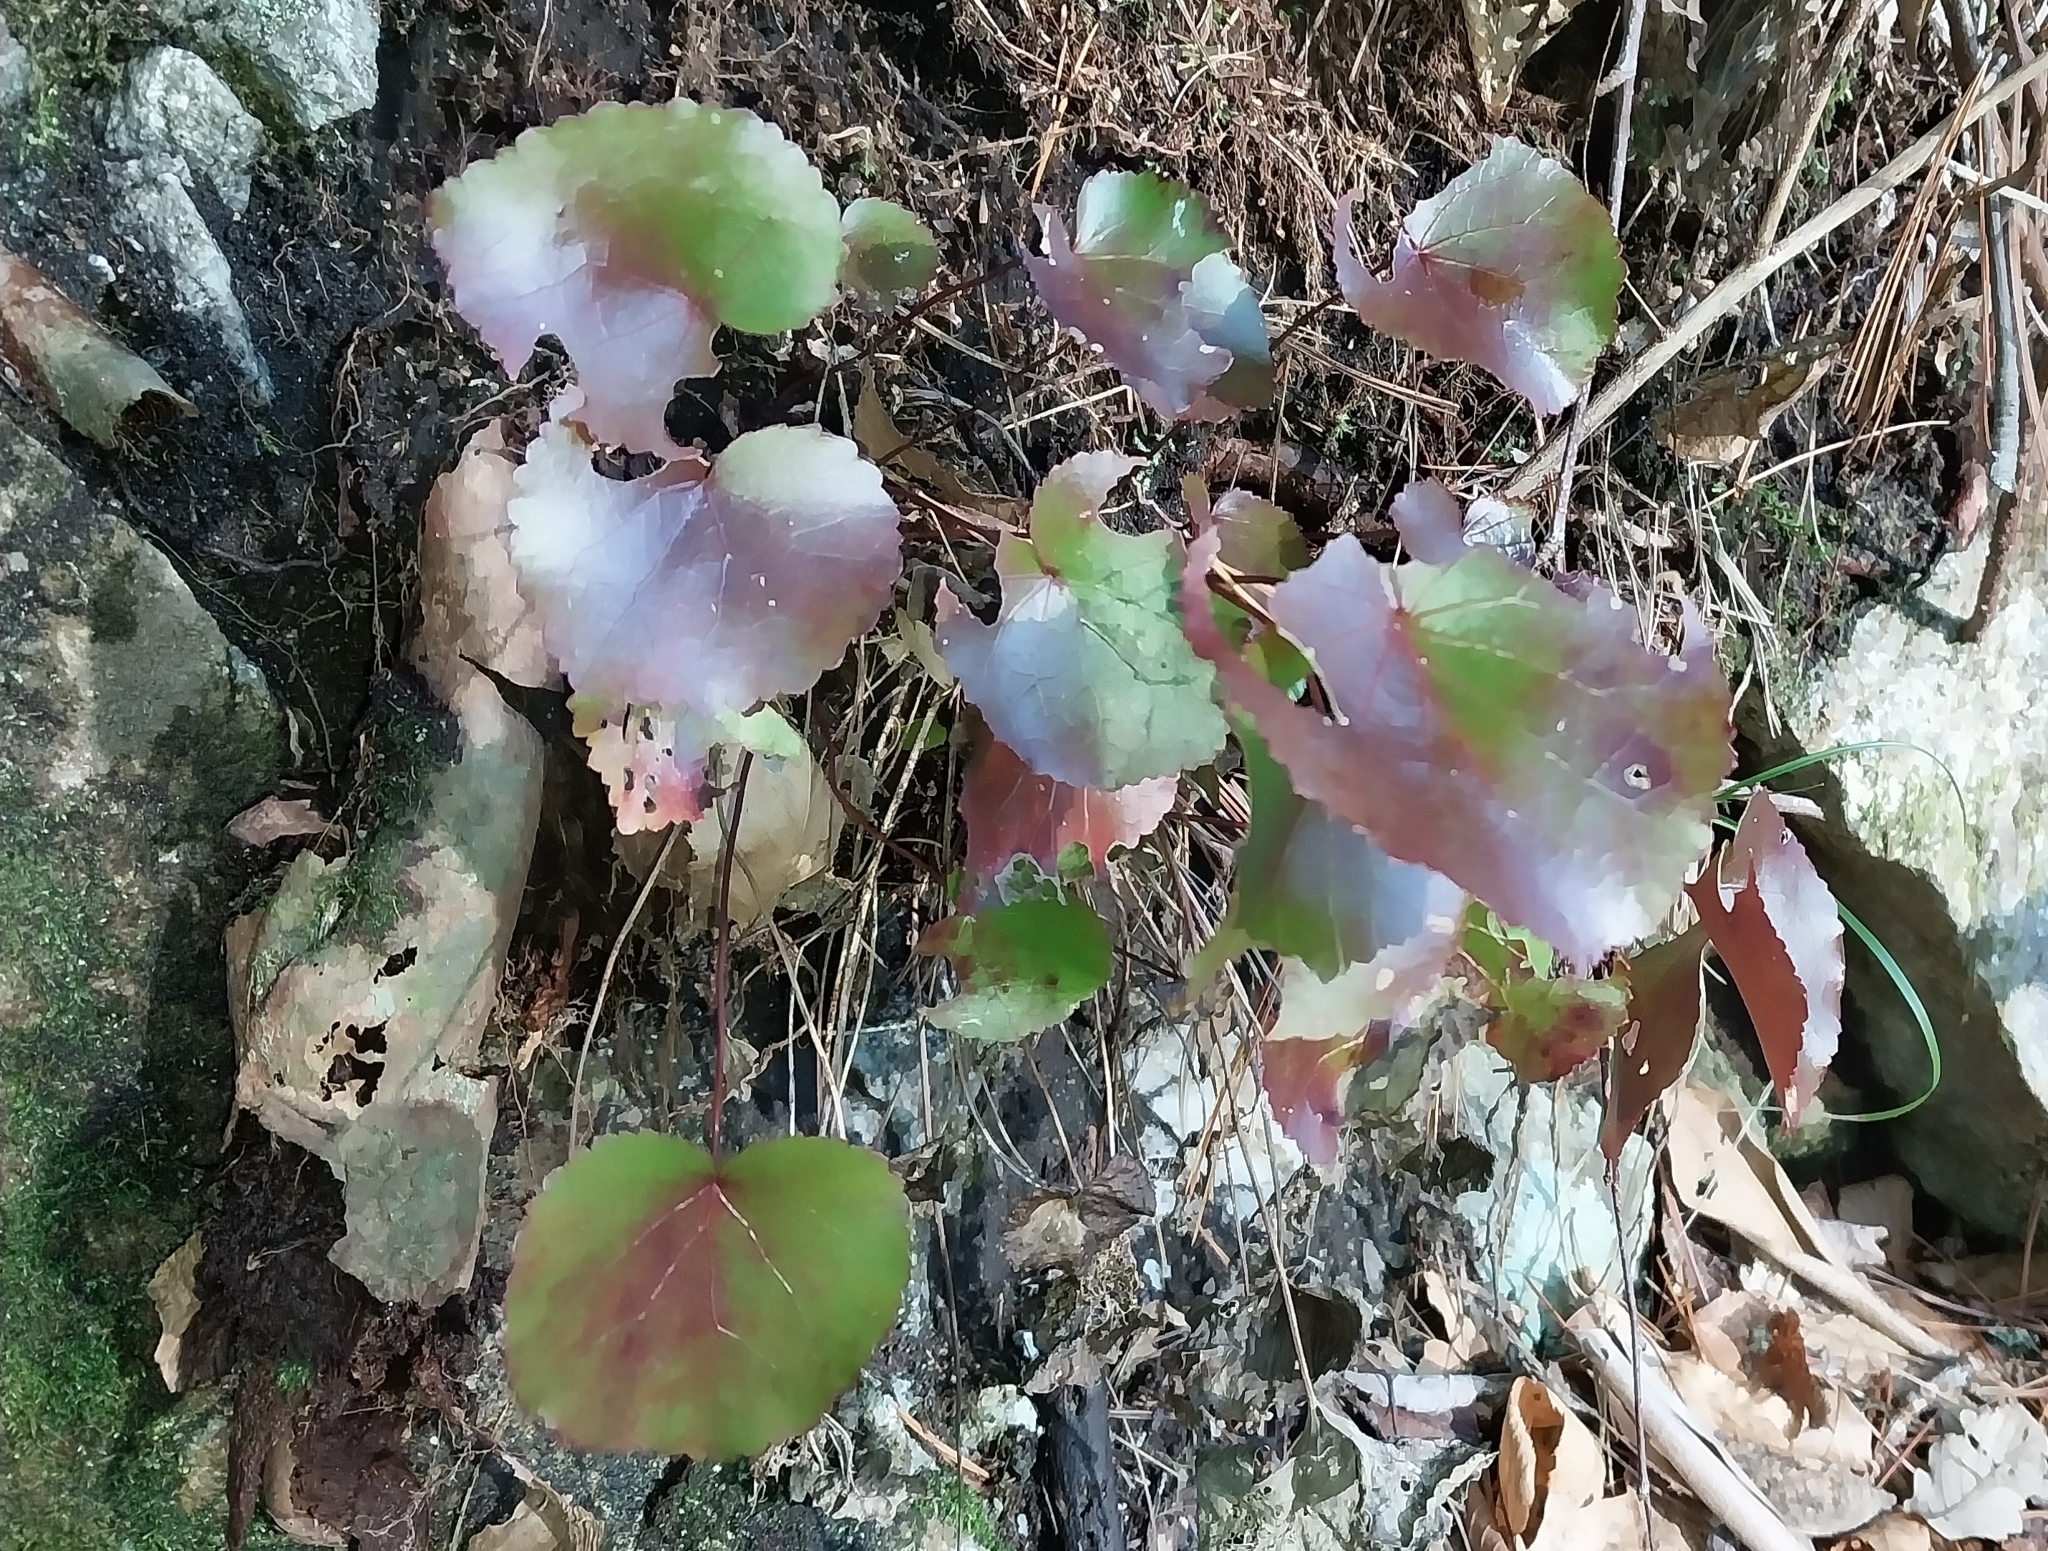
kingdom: Plantae
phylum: Tracheophyta
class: Magnoliopsida
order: Ericales
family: Diapensiaceae
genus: Galax
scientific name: Galax urceolata
